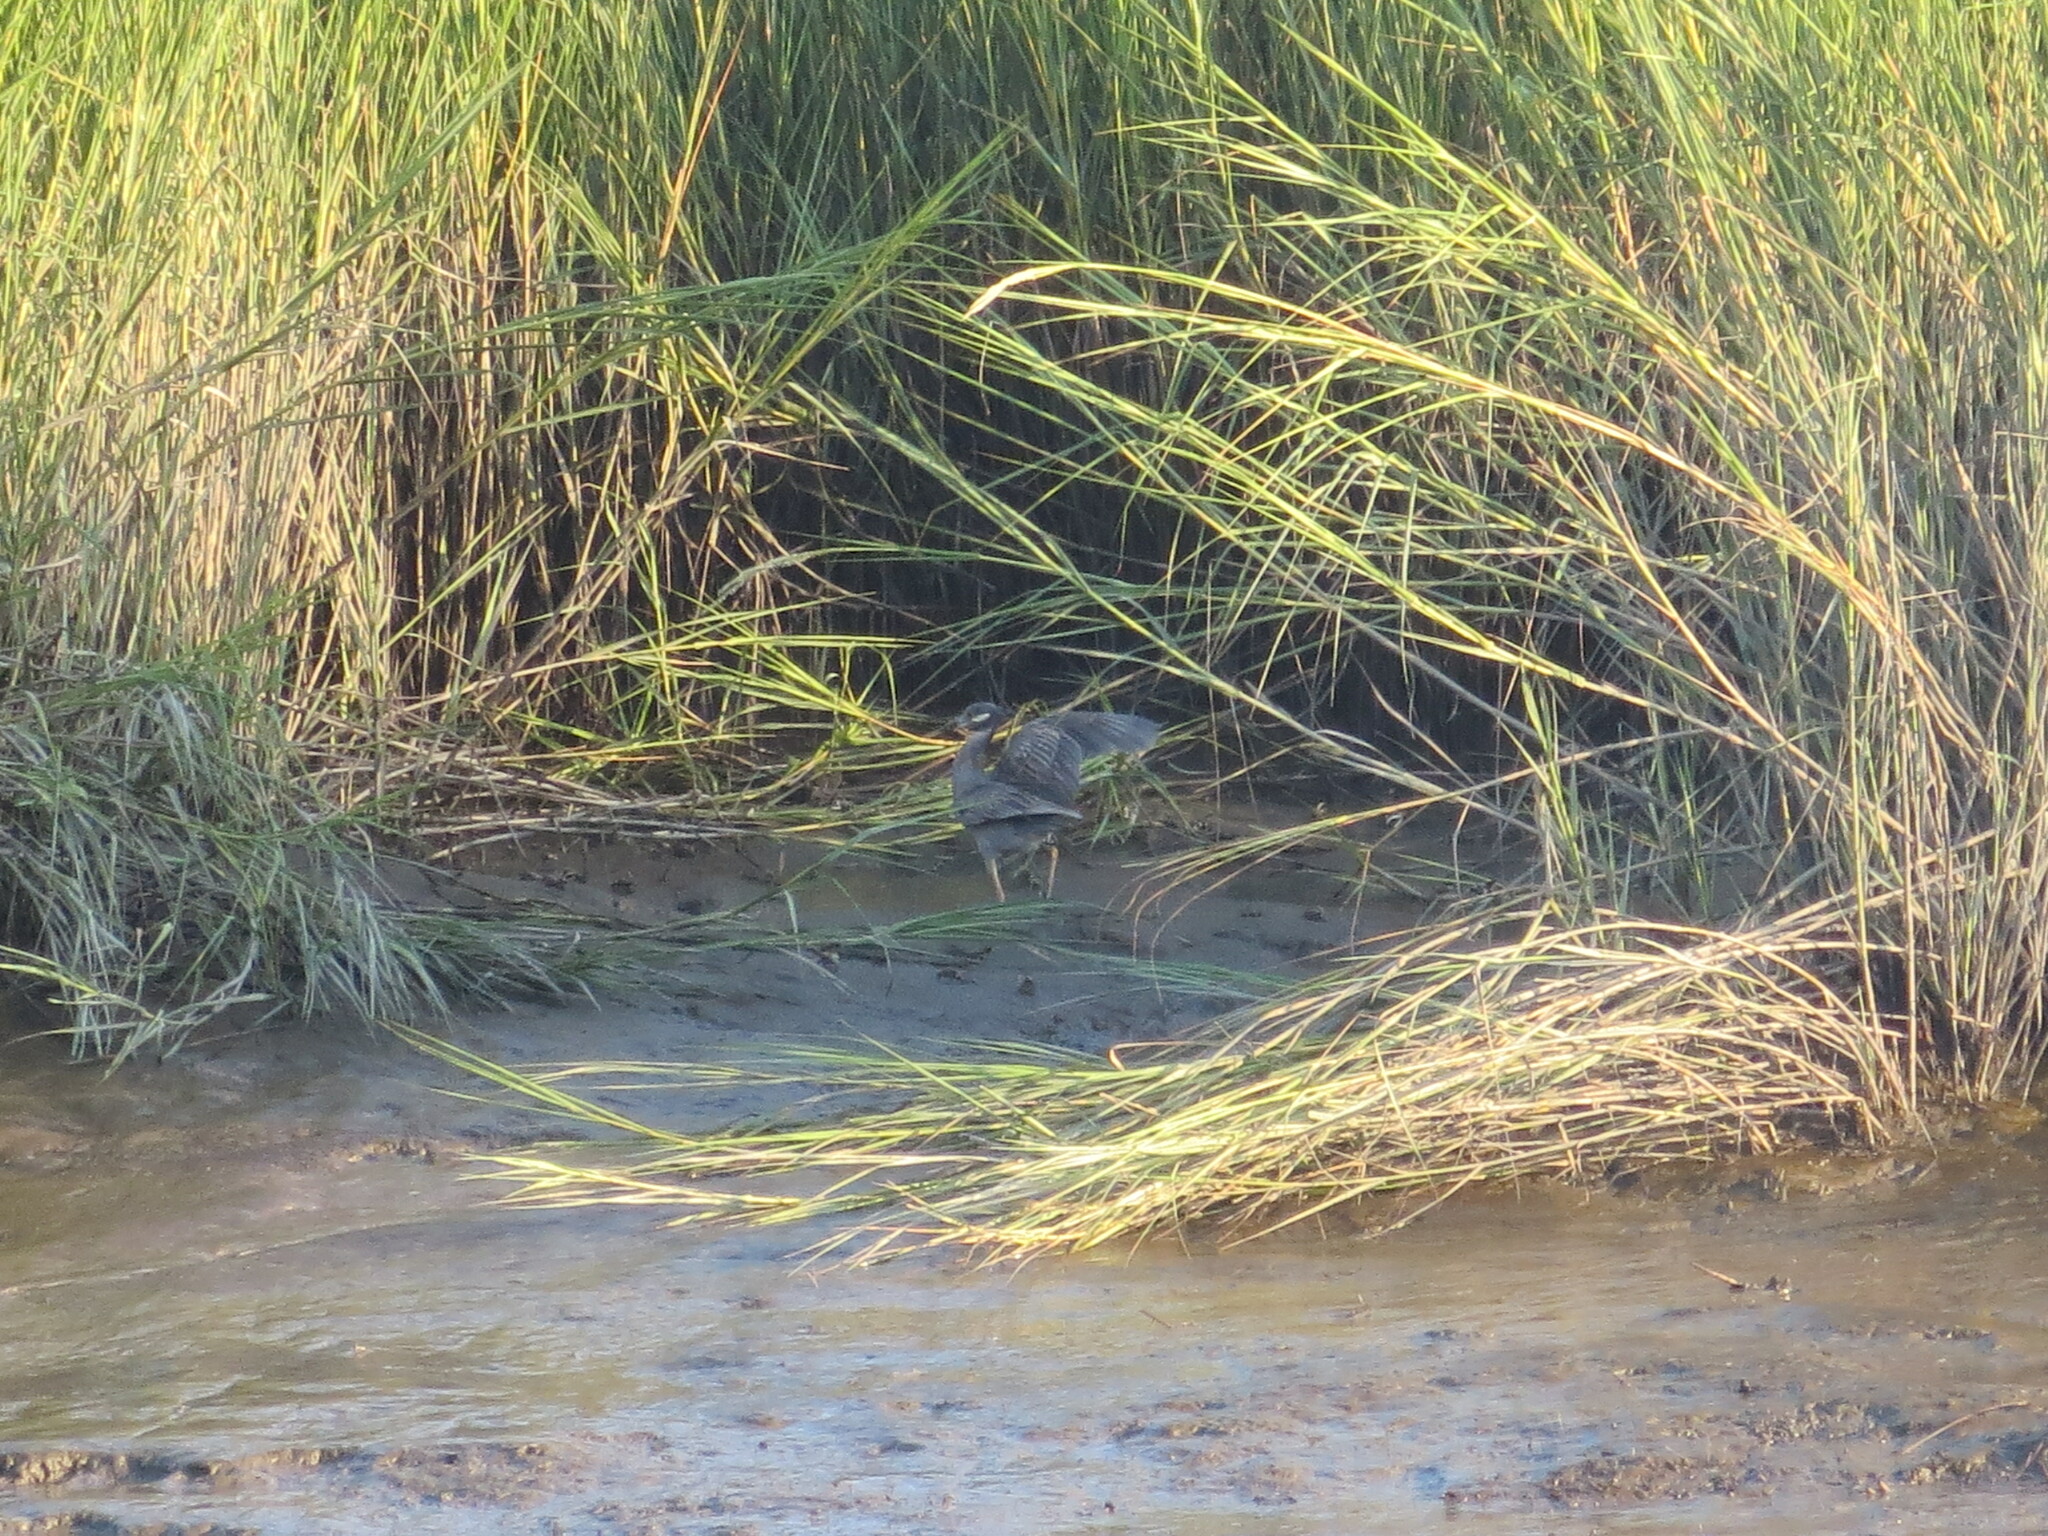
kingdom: Animalia
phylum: Chordata
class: Aves
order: Pelecaniformes
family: Ardeidae
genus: Nyctanassa
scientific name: Nyctanassa violacea
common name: Yellow-crowned night heron
